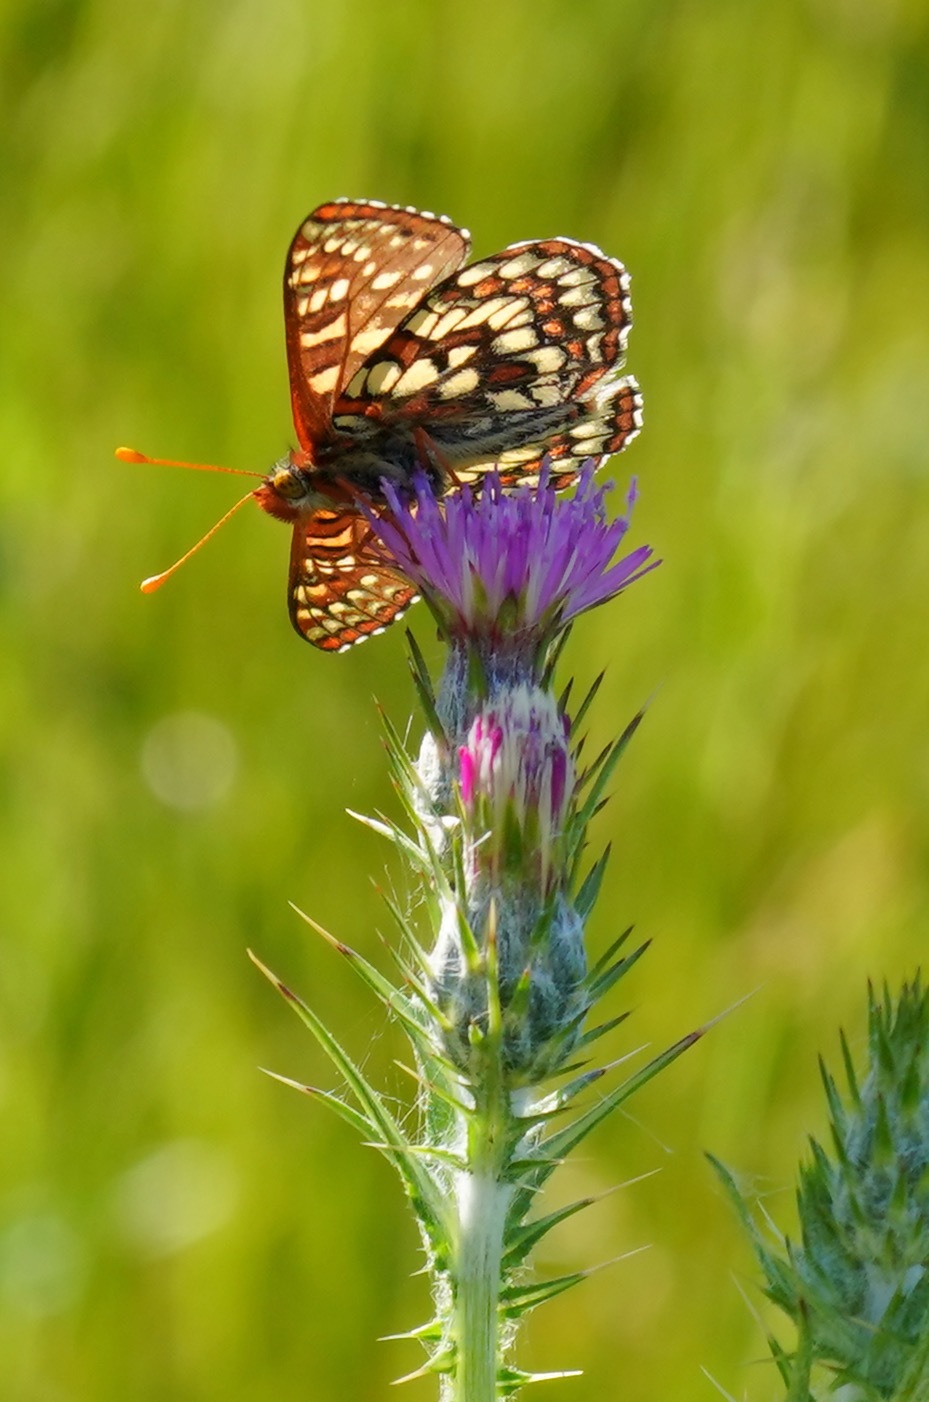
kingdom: Animalia
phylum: Arthropoda
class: Insecta
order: Lepidoptera
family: Nymphalidae
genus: Occidryas
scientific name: Occidryas chalcedona
